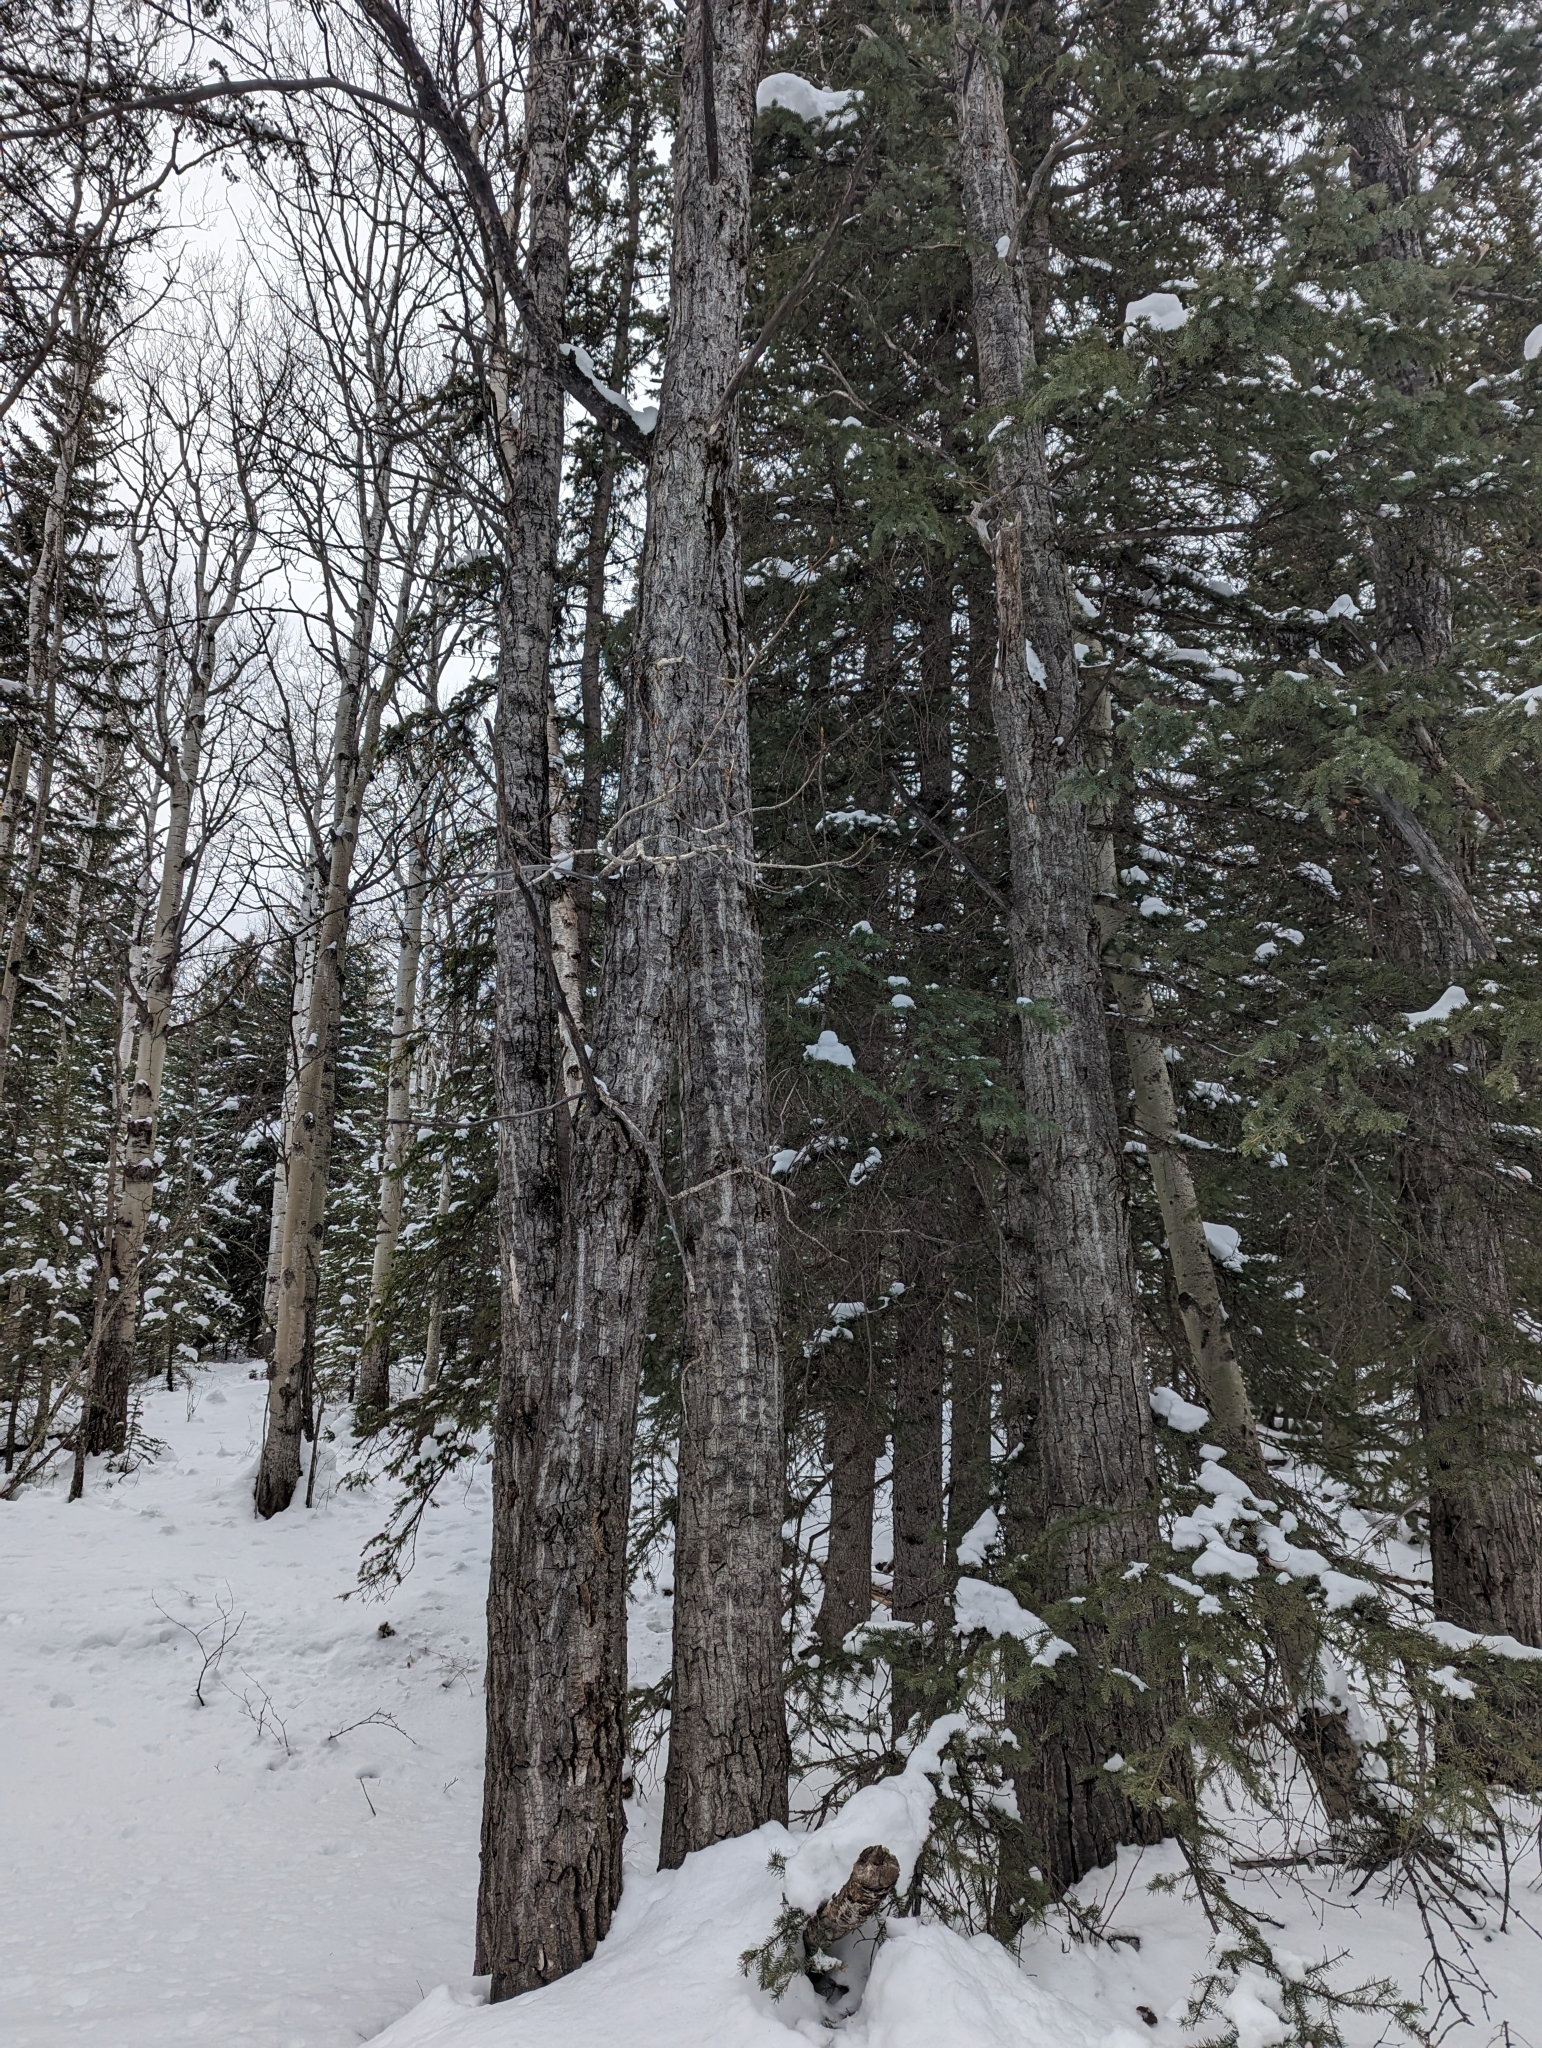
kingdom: Plantae
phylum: Tracheophyta
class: Magnoliopsida
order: Malpighiales
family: Salicaceae
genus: Populus
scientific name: Populus balsamifera
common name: Balsam poplar
